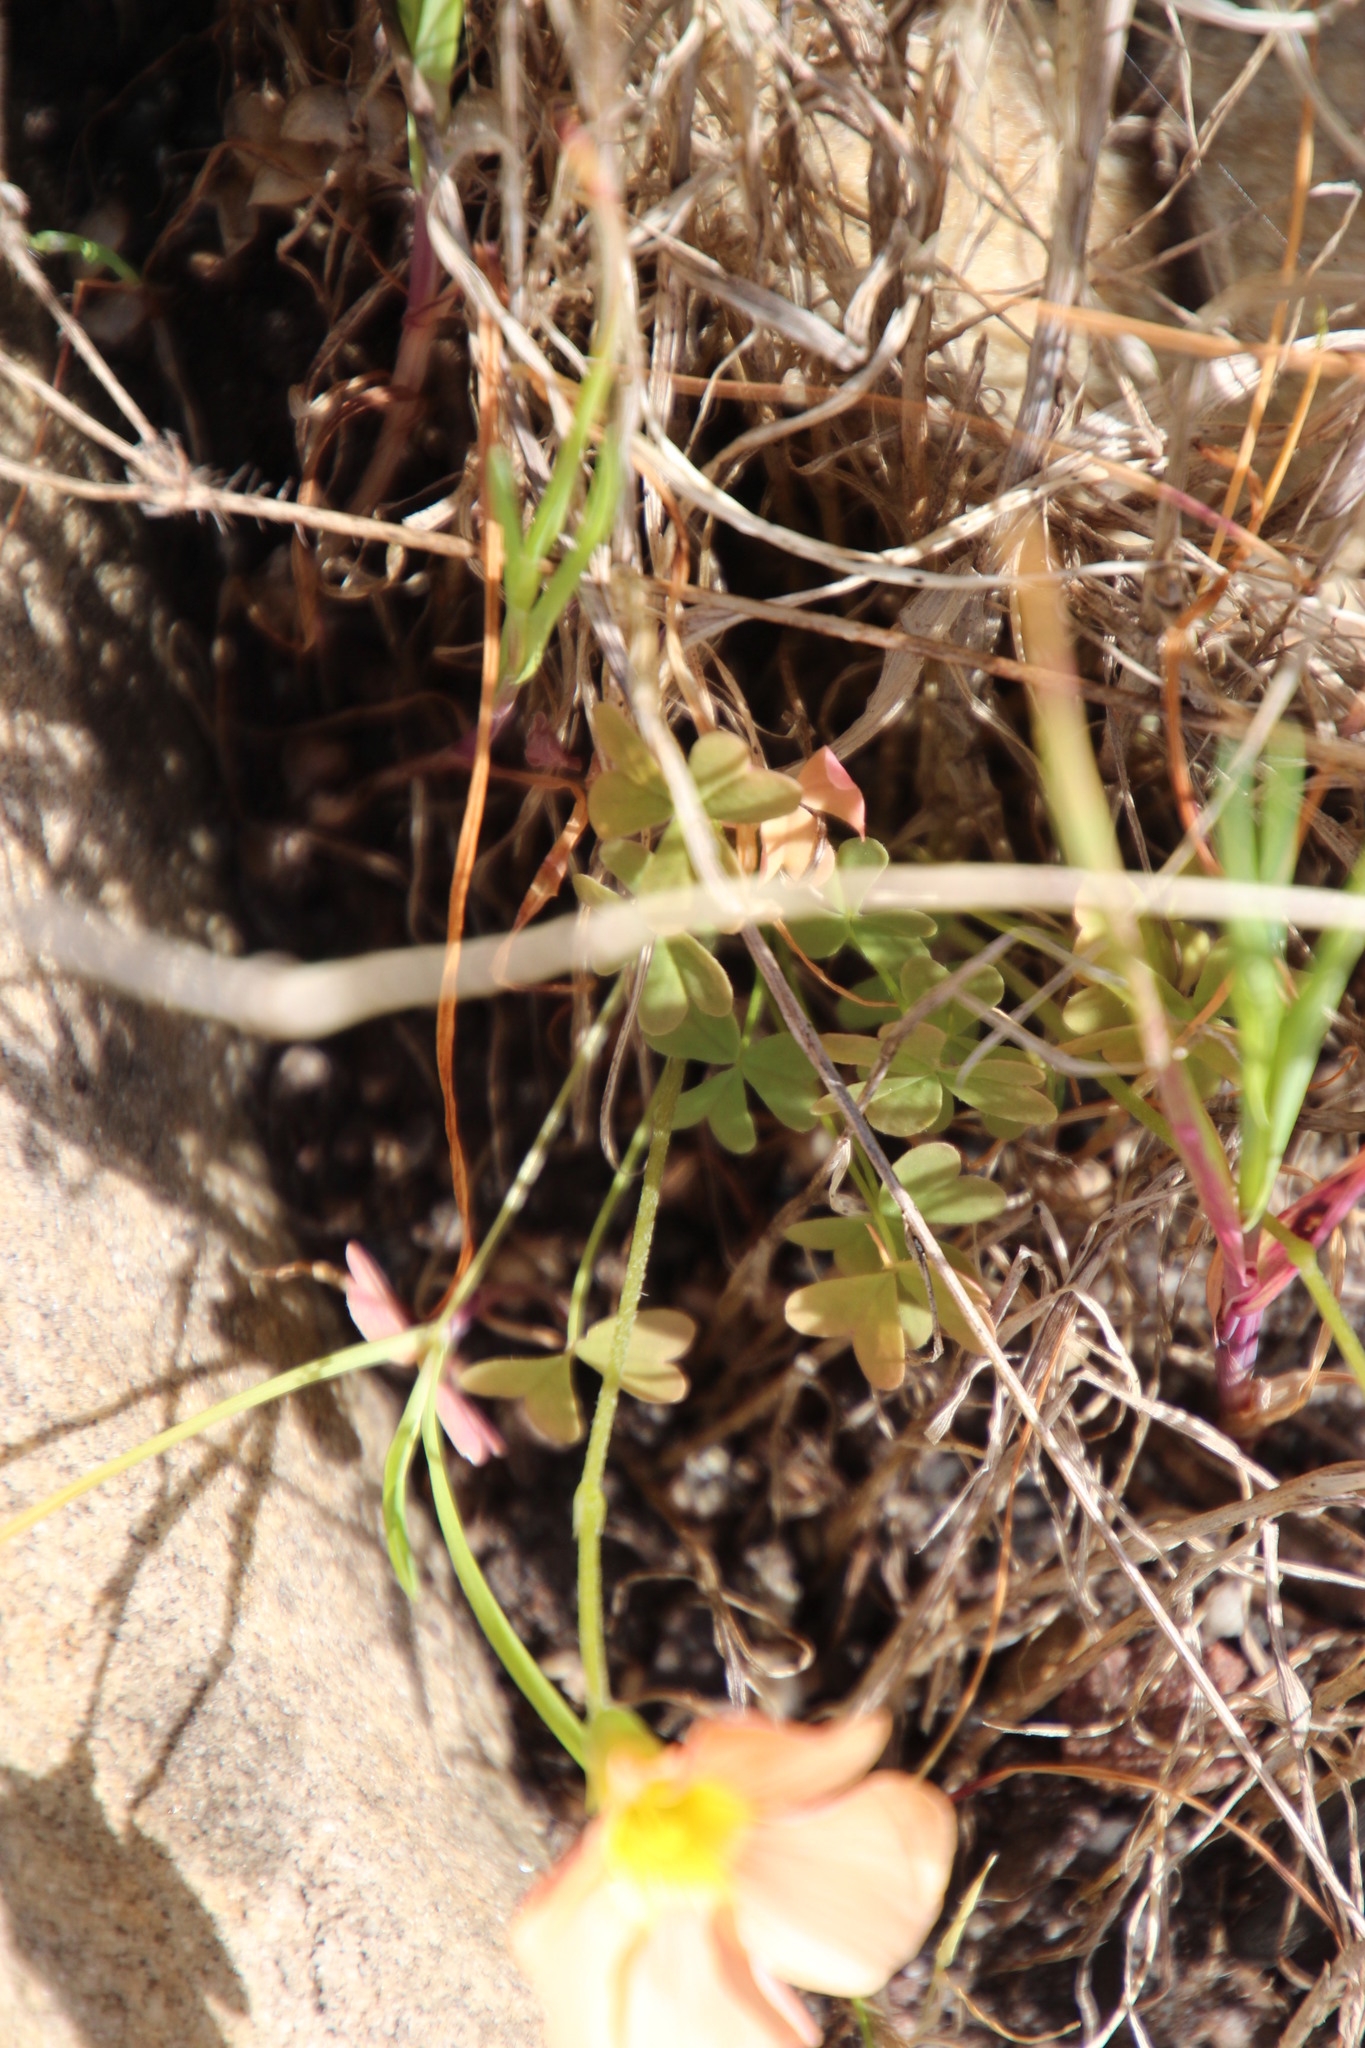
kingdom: Plantae
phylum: Tracheophyta
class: Magnoliopsida
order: Oxalidales
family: Oxalidaceae
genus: Oxalis
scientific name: Oxalis obtusa
